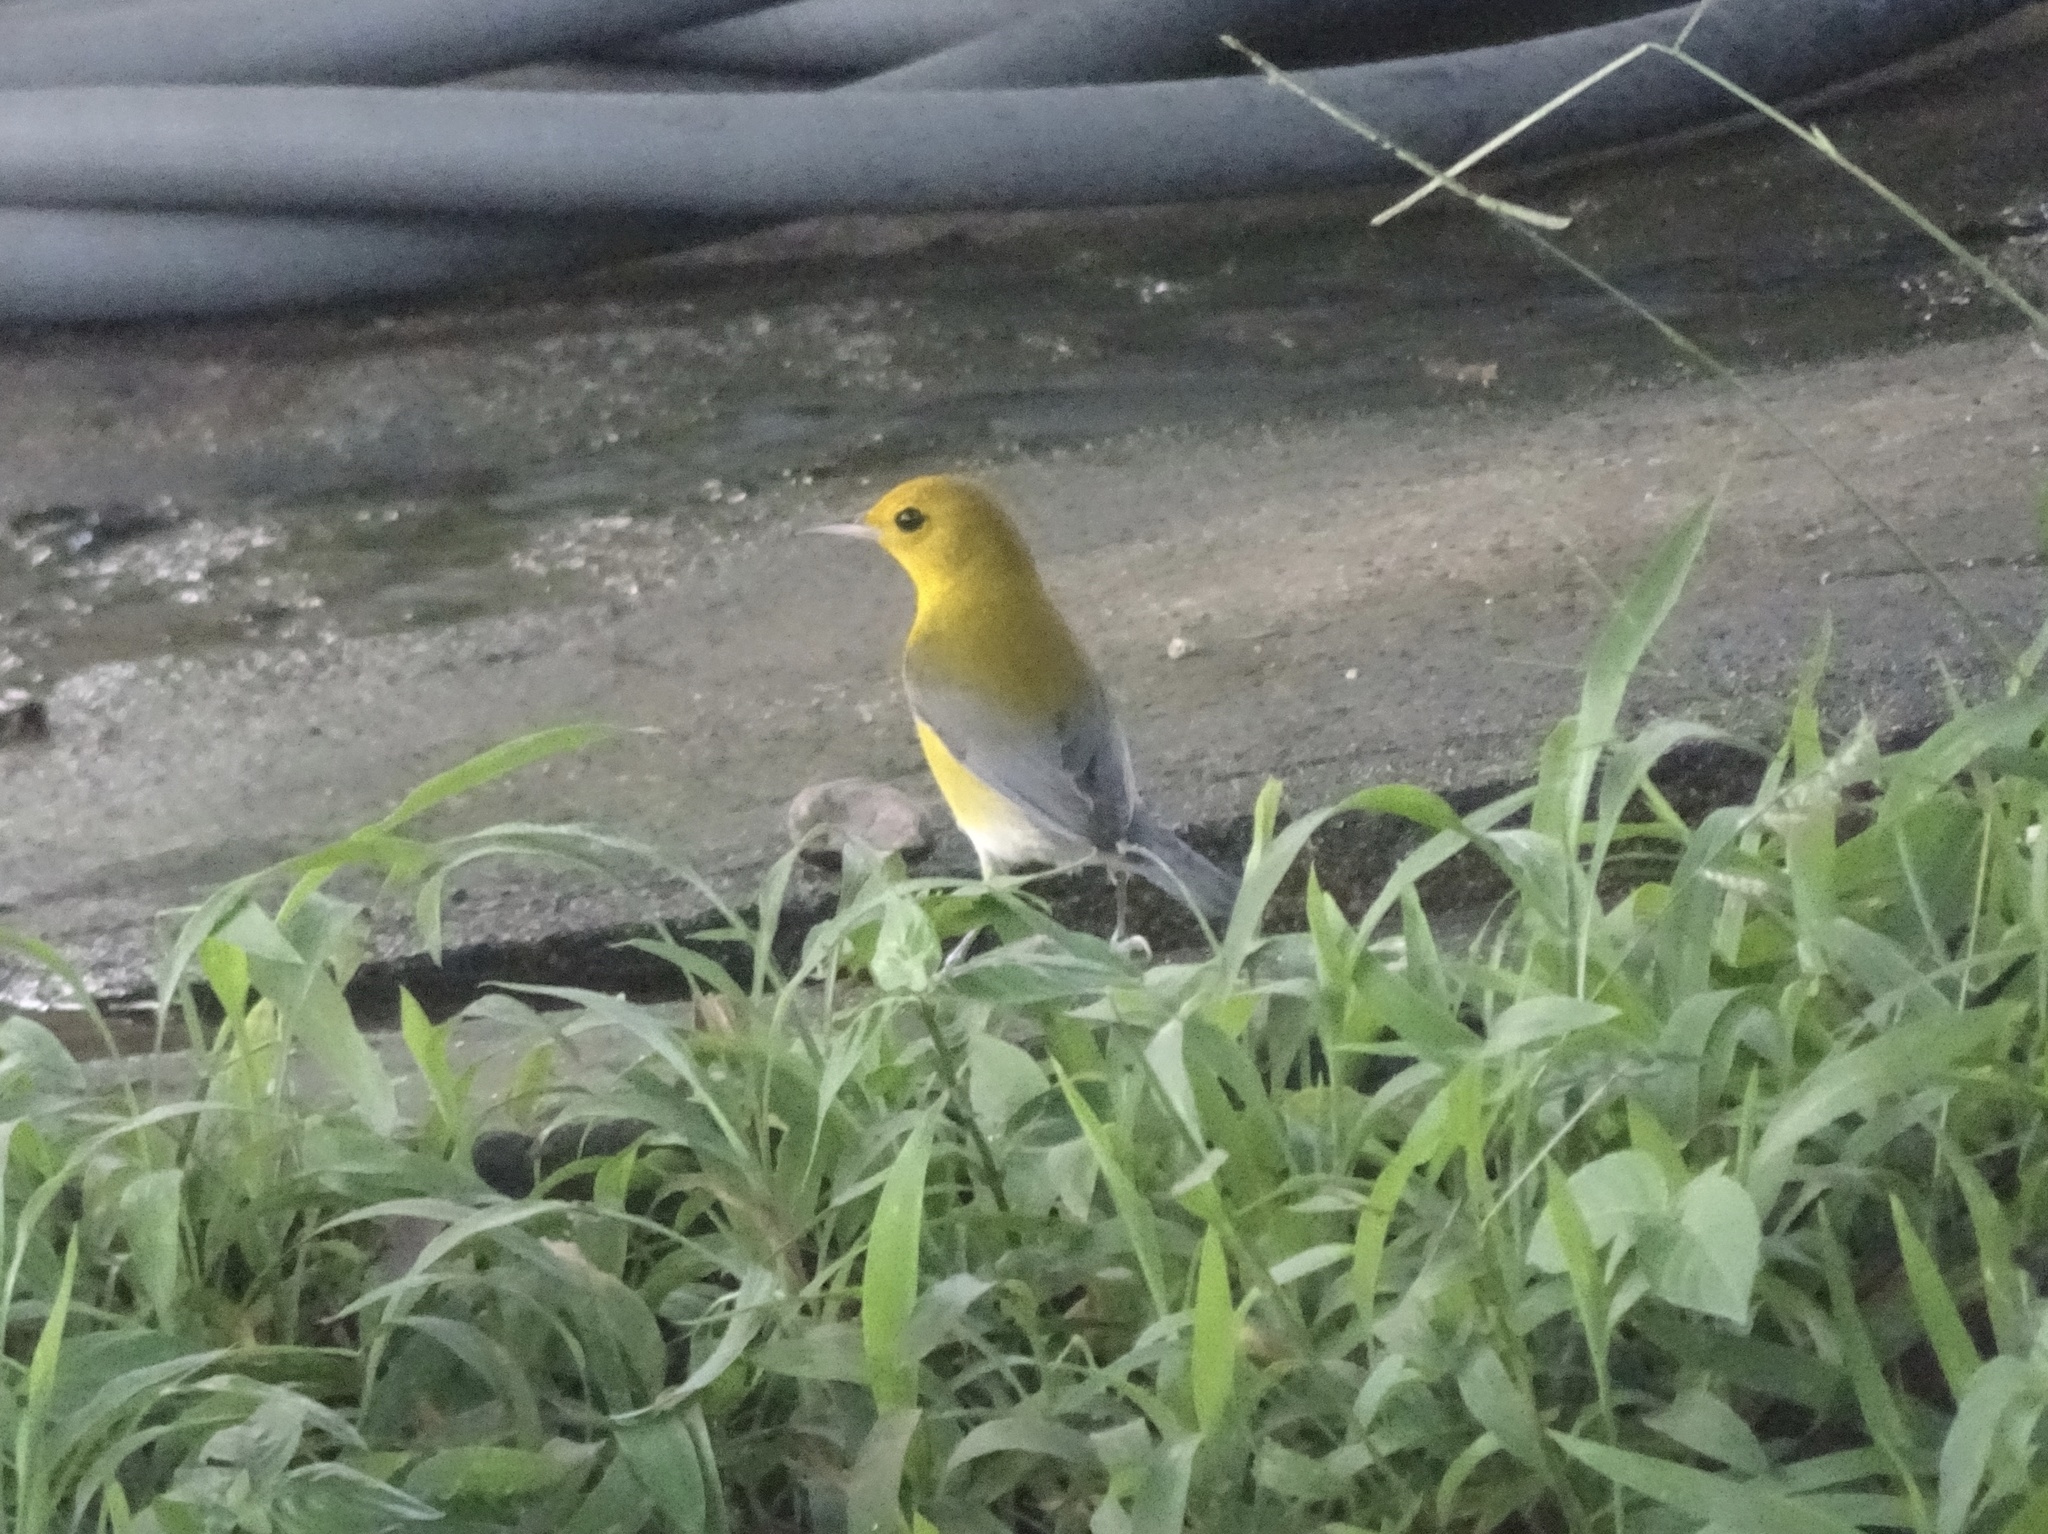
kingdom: Animalia
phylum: Chordata
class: Aves
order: Passeriformes
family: Parulidae
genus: Protonotaria
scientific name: Protonotaria citrea
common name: Prothonotary warbler
